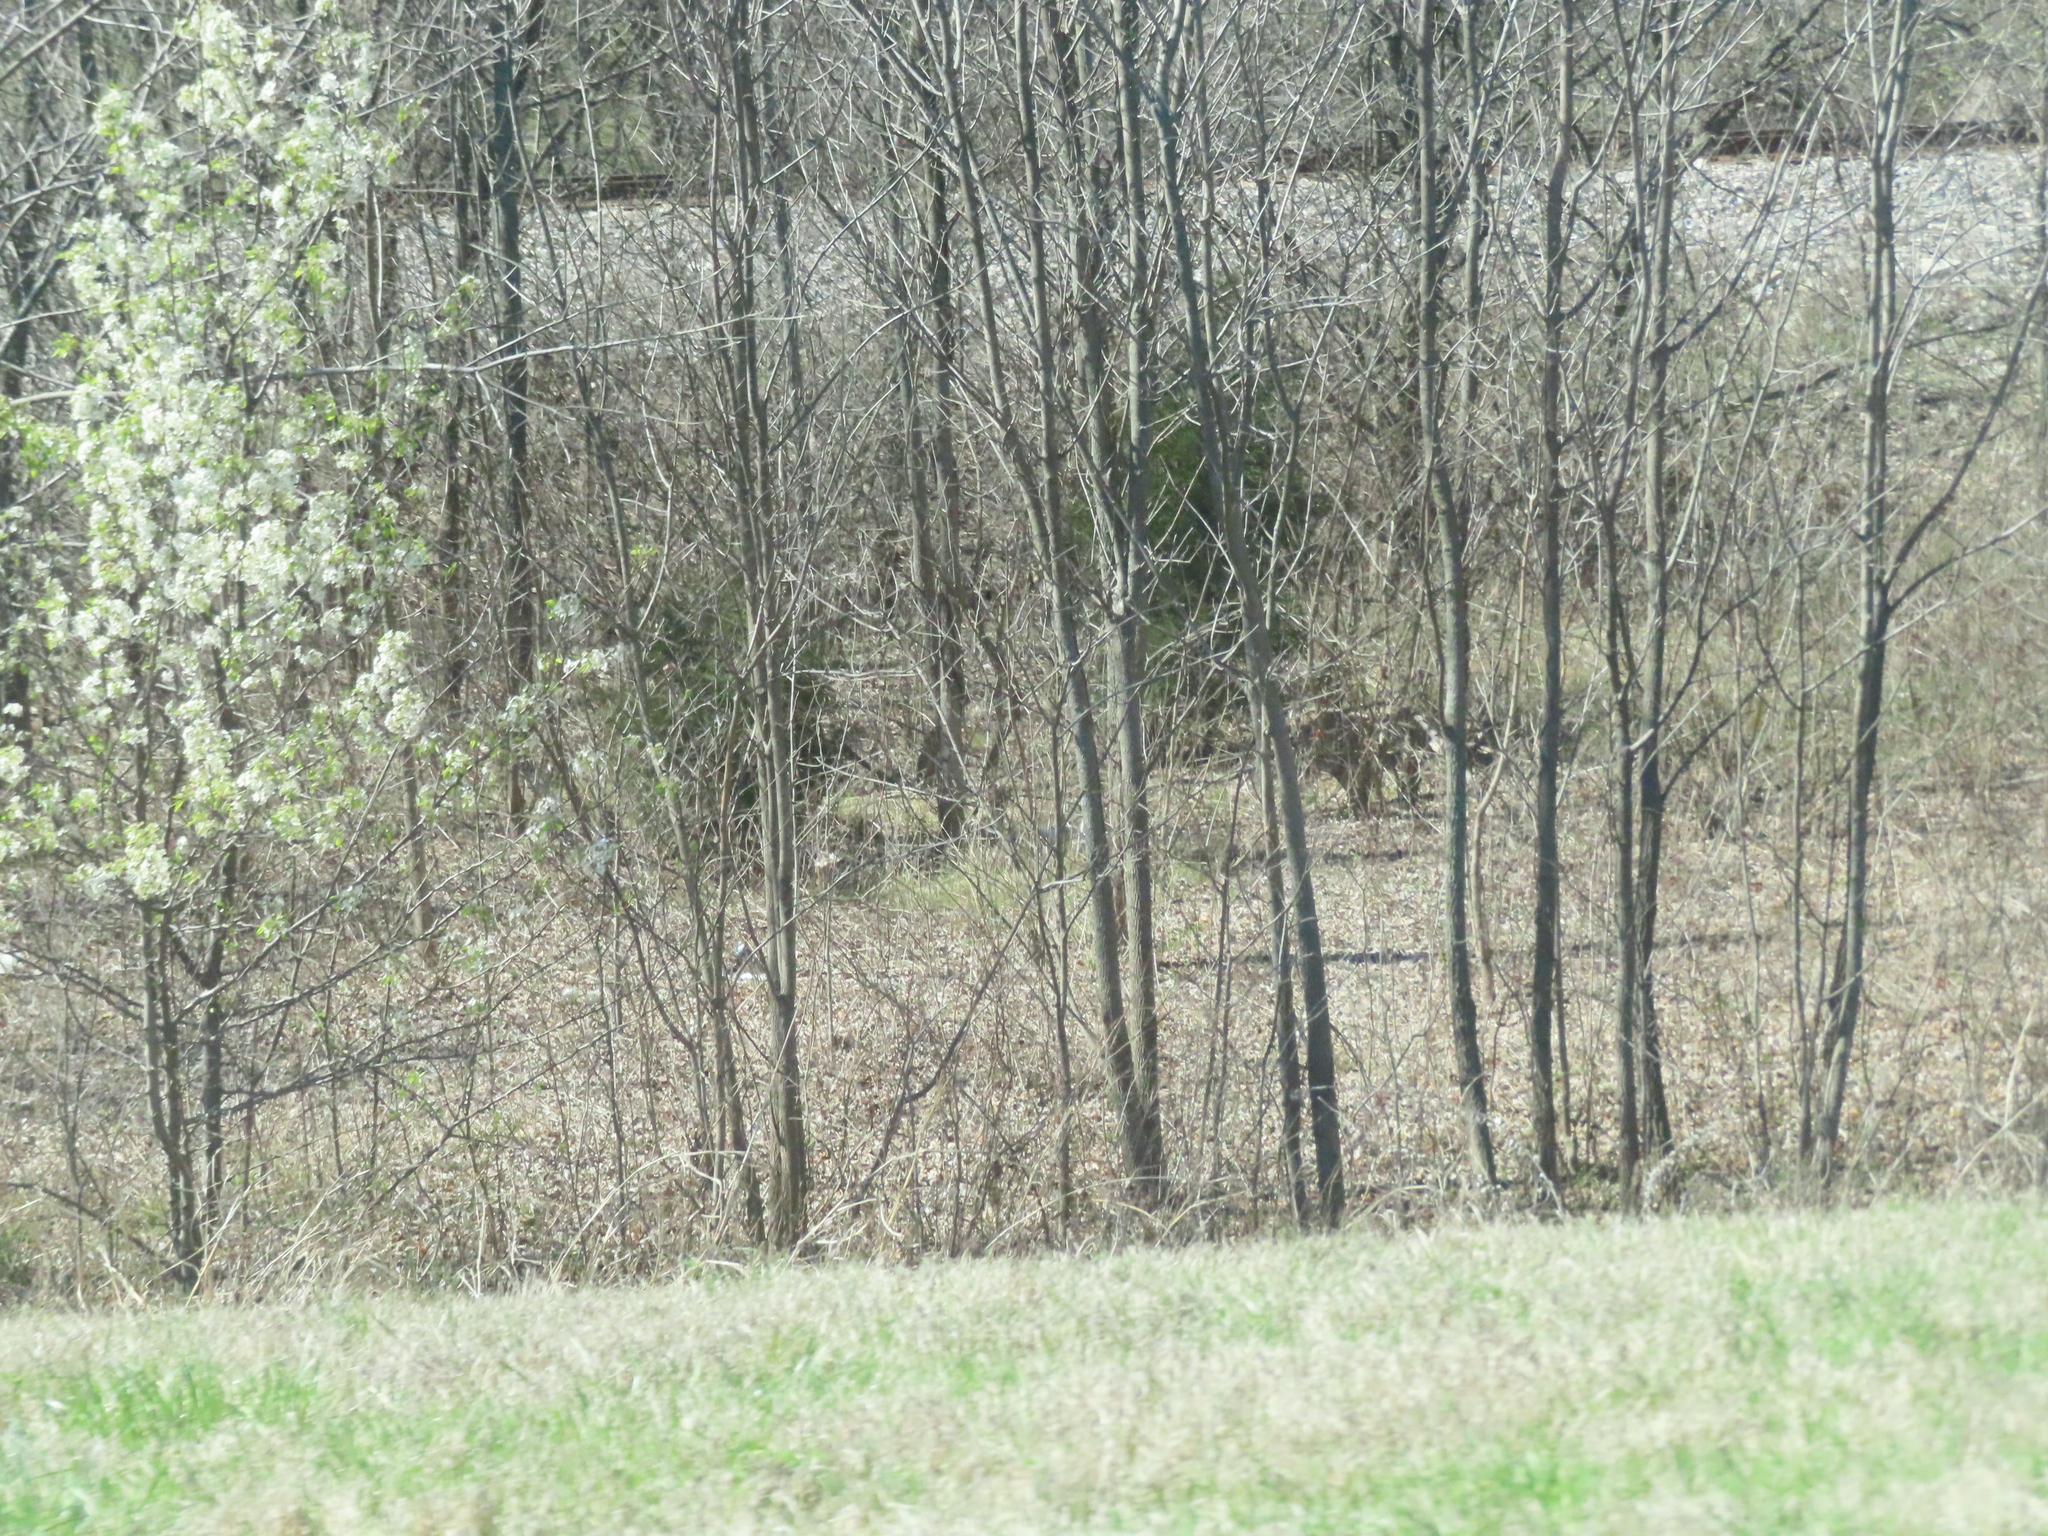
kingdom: Plantae
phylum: Tracheophyta
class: Magnoliopsida
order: Rosales
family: Rosaceae
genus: Pyrus
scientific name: Pyrus calleryana
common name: Callery pear
